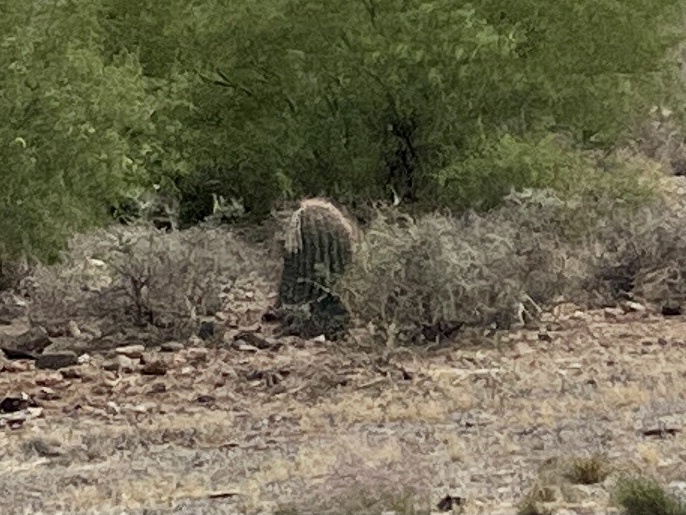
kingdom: Plantae
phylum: Tracheophyta
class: Magnoliopsida
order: Caryophyllales
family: Cactaceae
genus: Ferocactus
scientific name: Ferocactus wislizeni
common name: Candy barrel cactus
